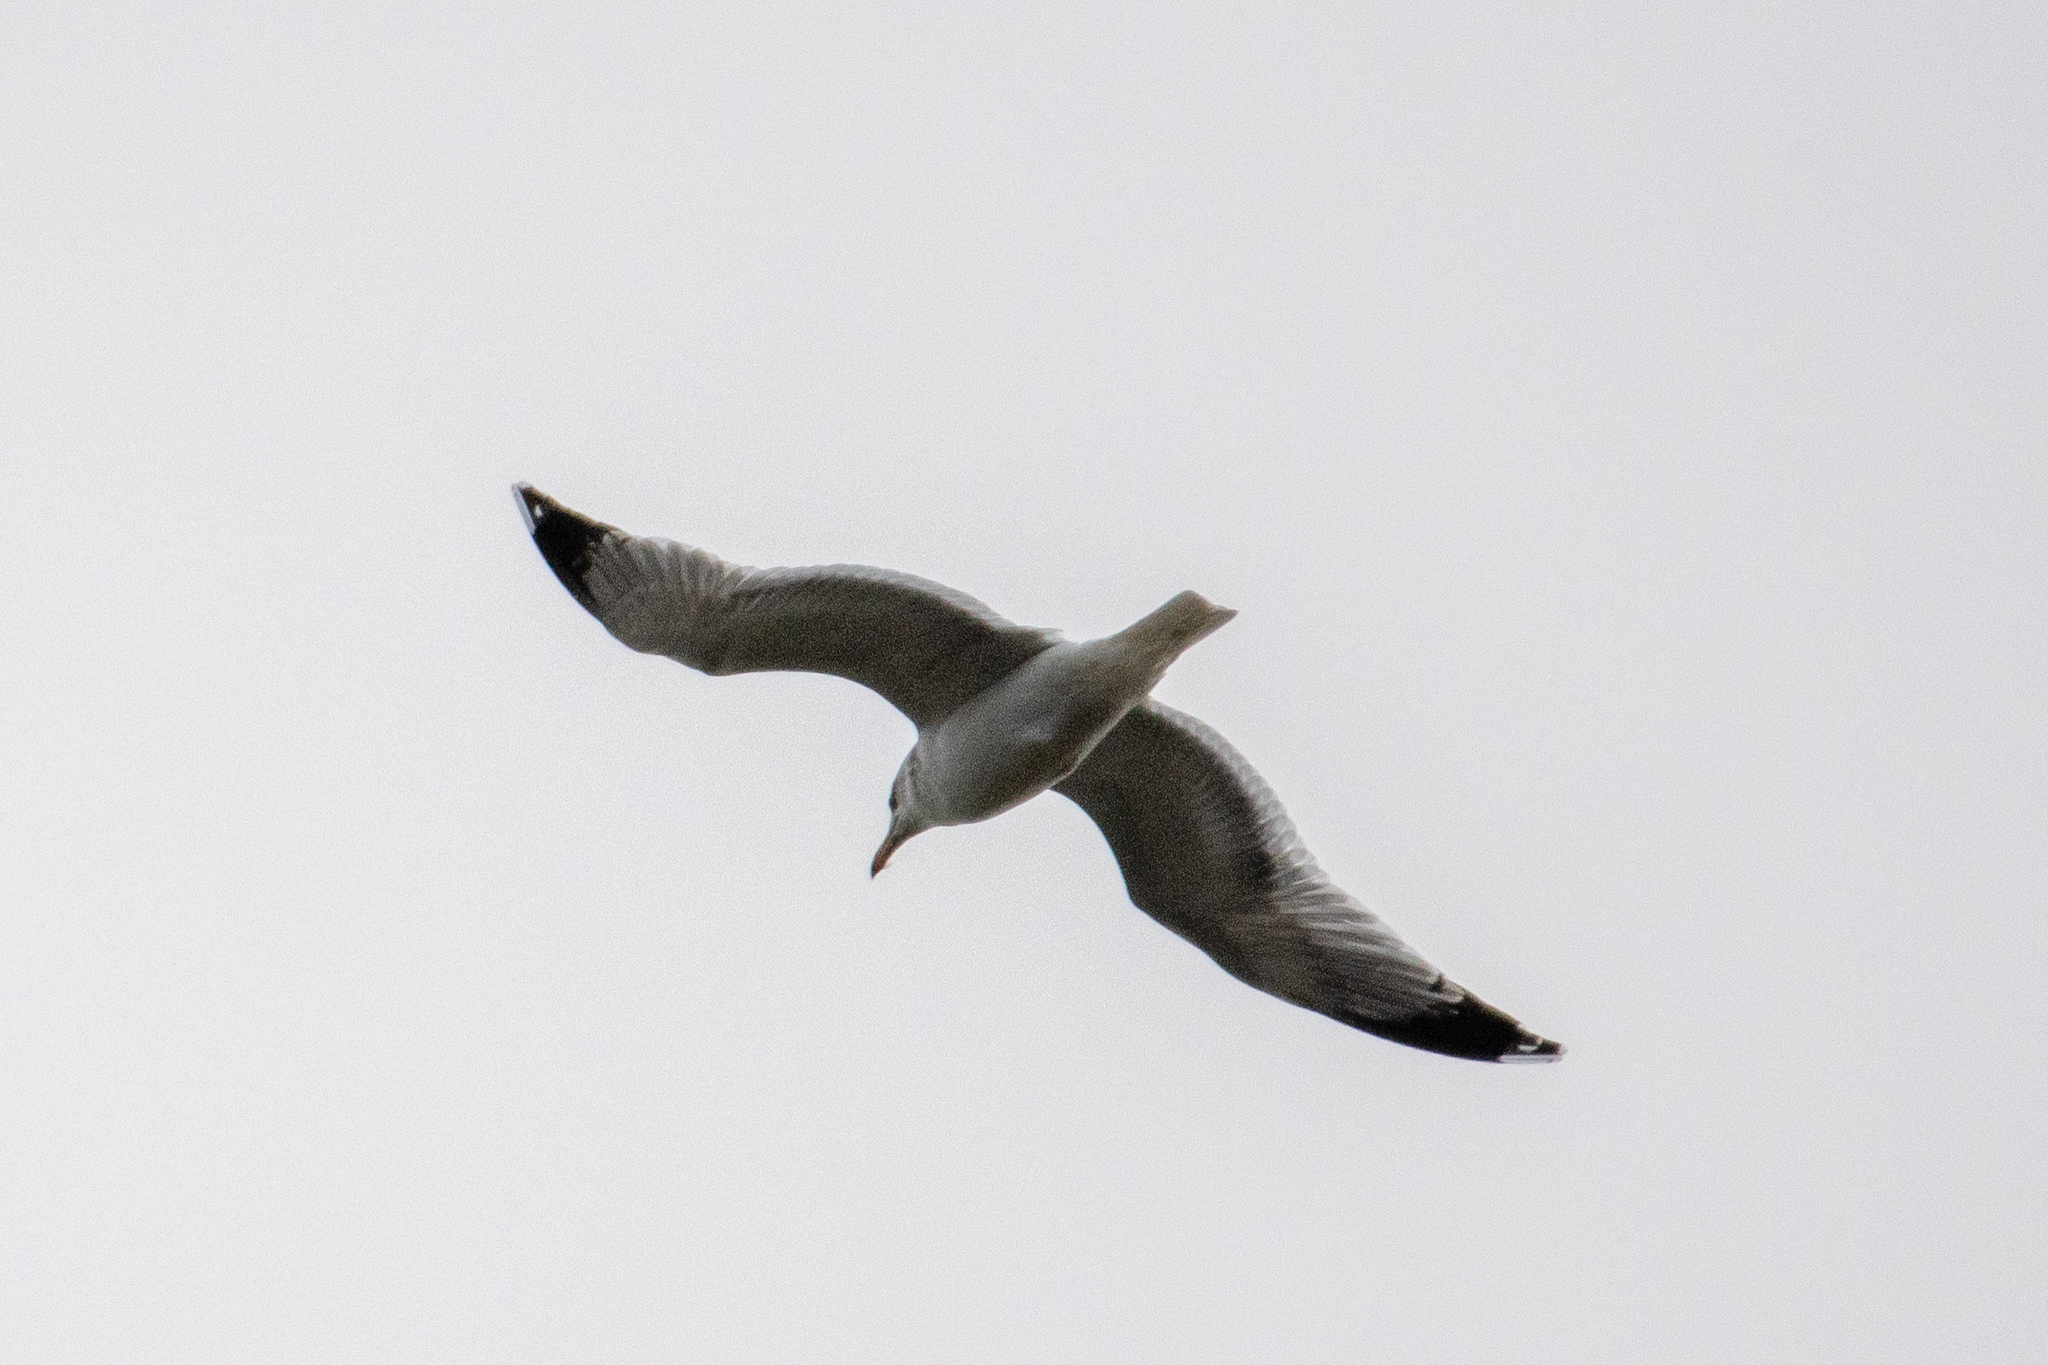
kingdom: Animalia
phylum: Chordata
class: Aves
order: Charadriiformes
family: Laridae
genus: Larus
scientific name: Larus californicus
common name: California gull
